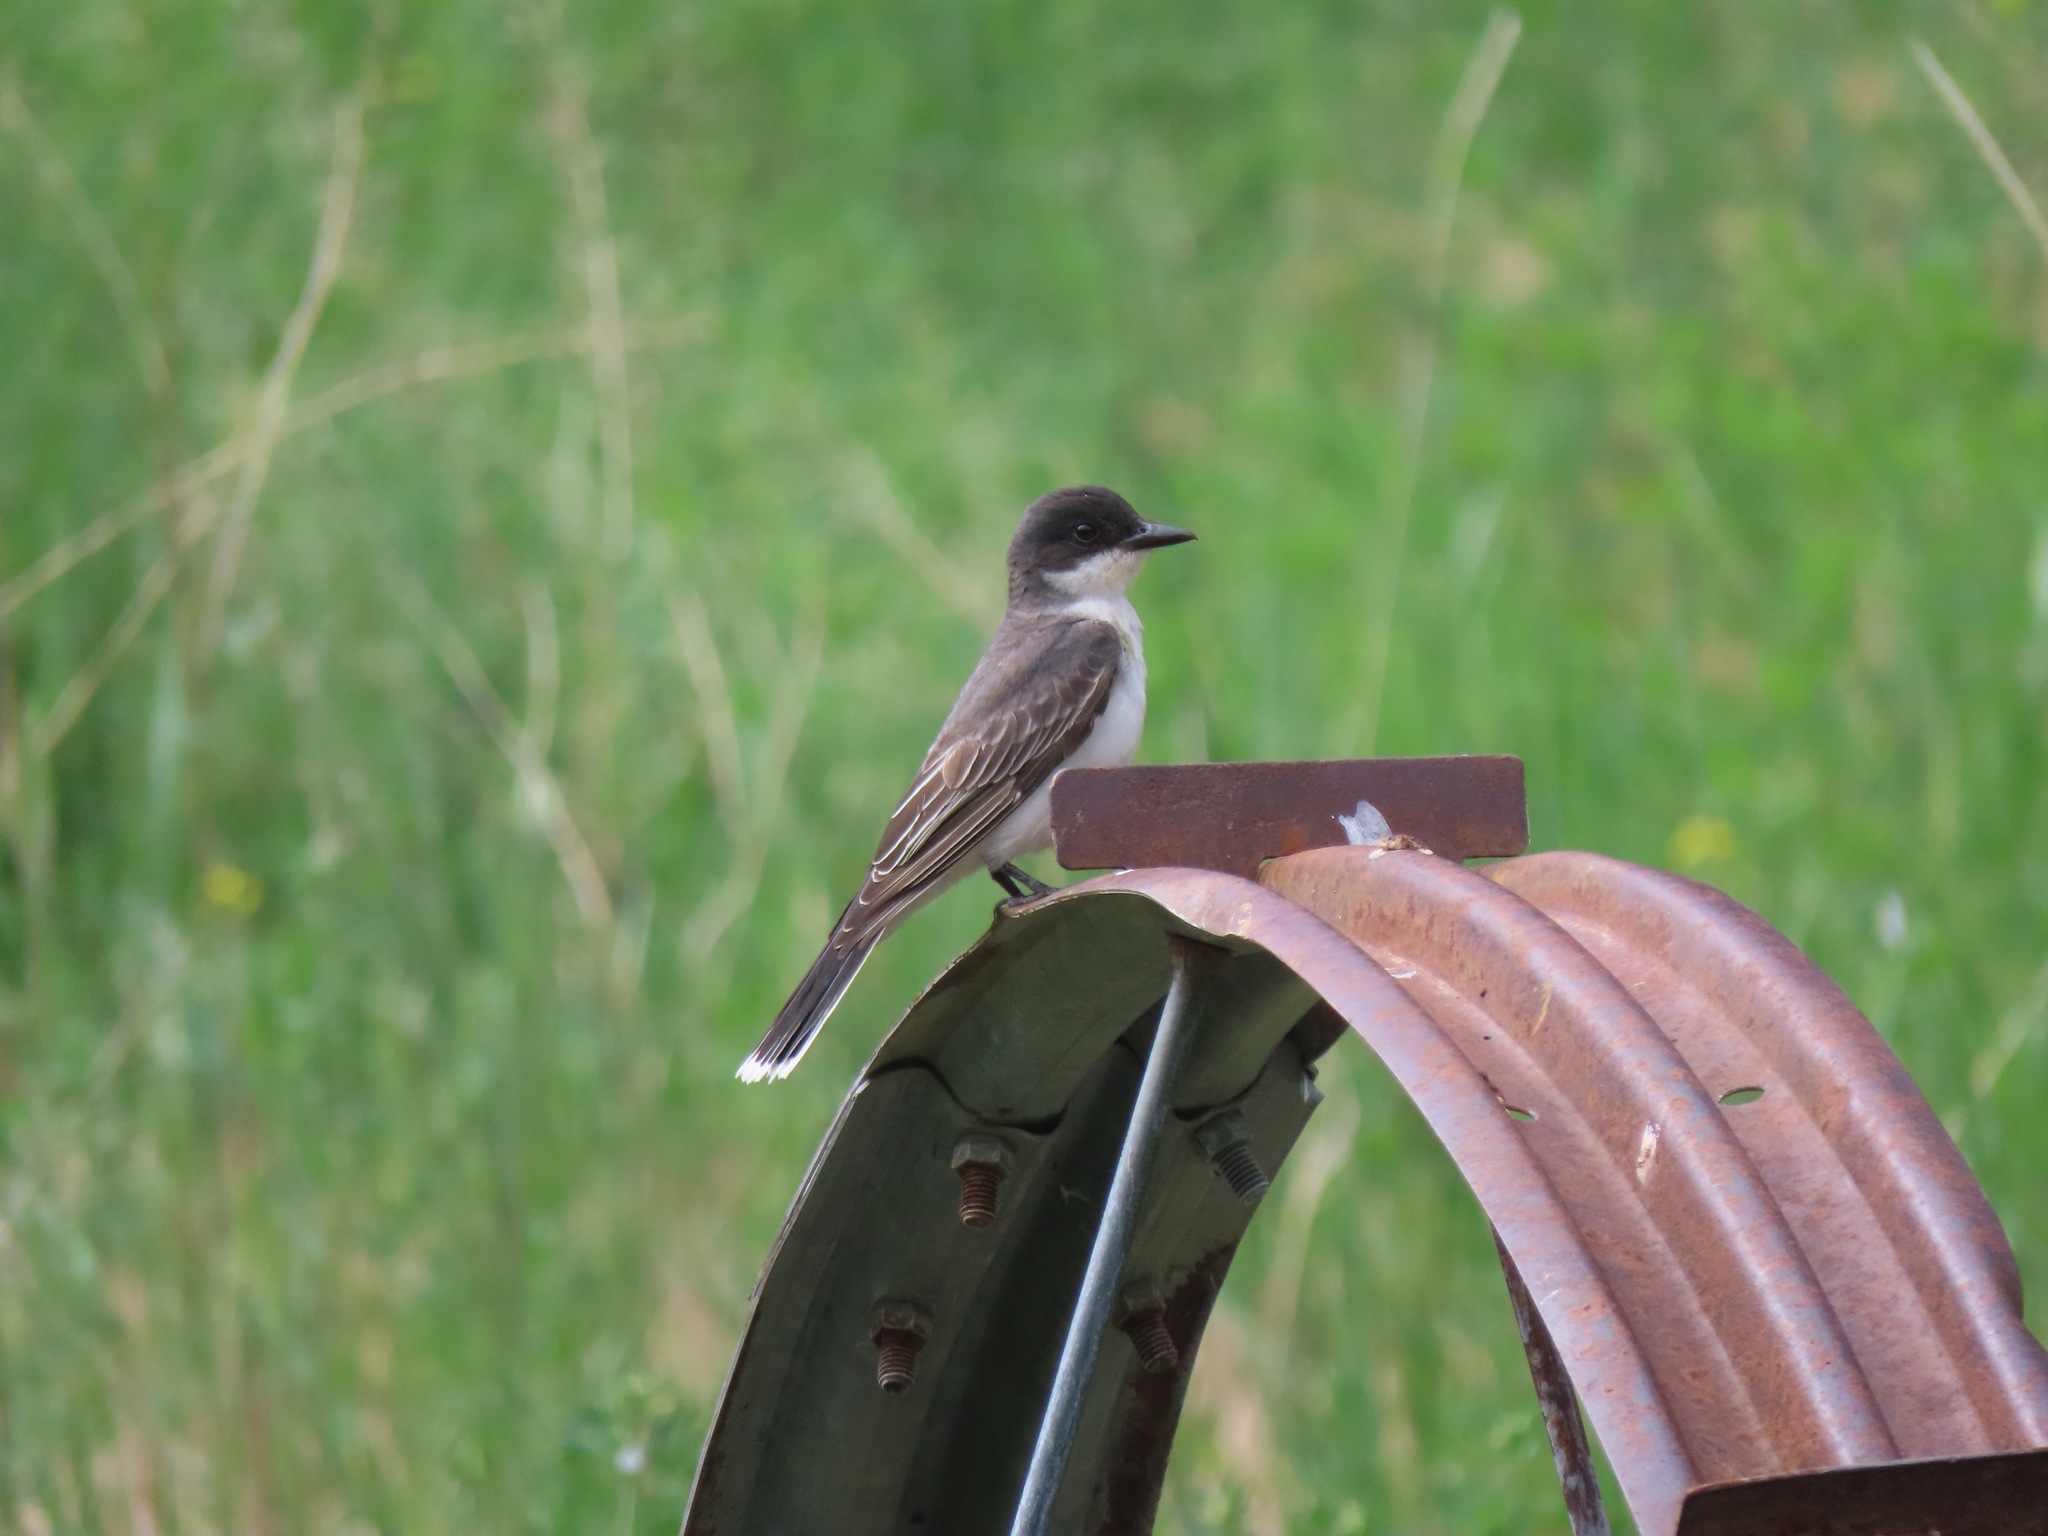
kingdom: Animalia
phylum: Chordata
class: Aves
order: Passeriformes
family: Tyrannidae
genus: Tyrannus
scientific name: Tyrannus tyrannus
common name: Eastern kingbird
